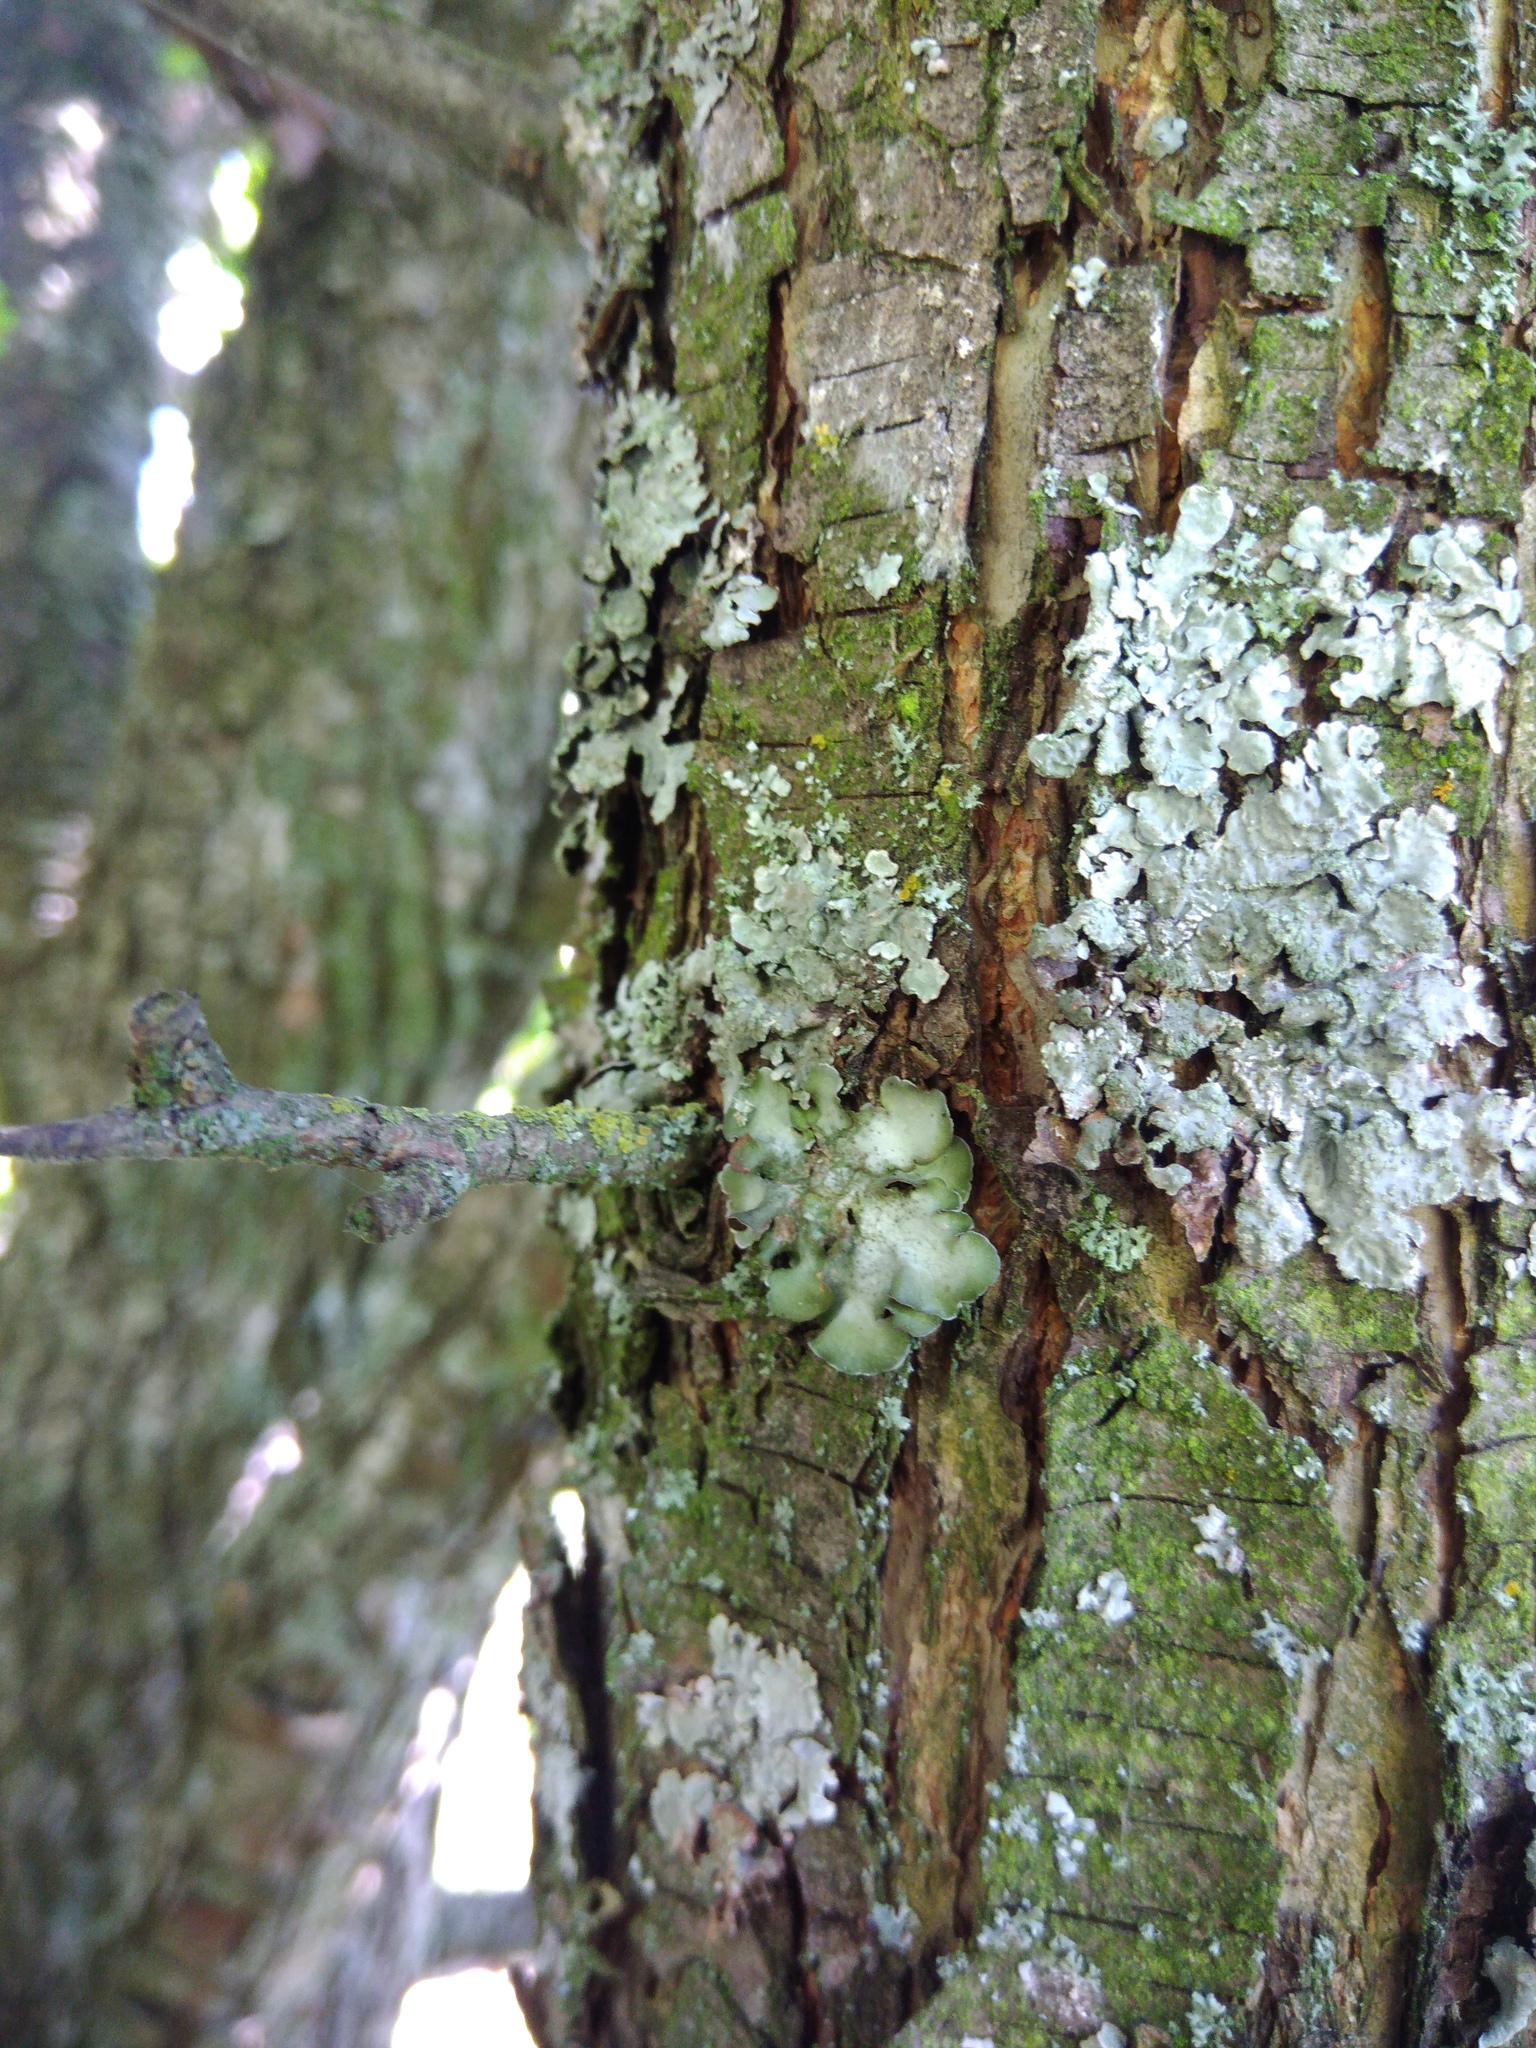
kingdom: Fungi
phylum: Ascomycota
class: Lecanoromycetes
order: Lecanorales
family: Parmeliaceae
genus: Pleurosticta
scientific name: Pleurosticta acetabulum
